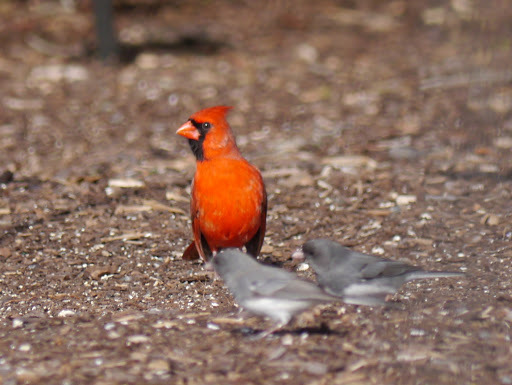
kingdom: Animalia
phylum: Chordata
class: Aves
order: Passeriformes
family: Cardinalidae
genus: Cardinalis
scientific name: Cardinalis cardinalis
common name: Northern cardinal
